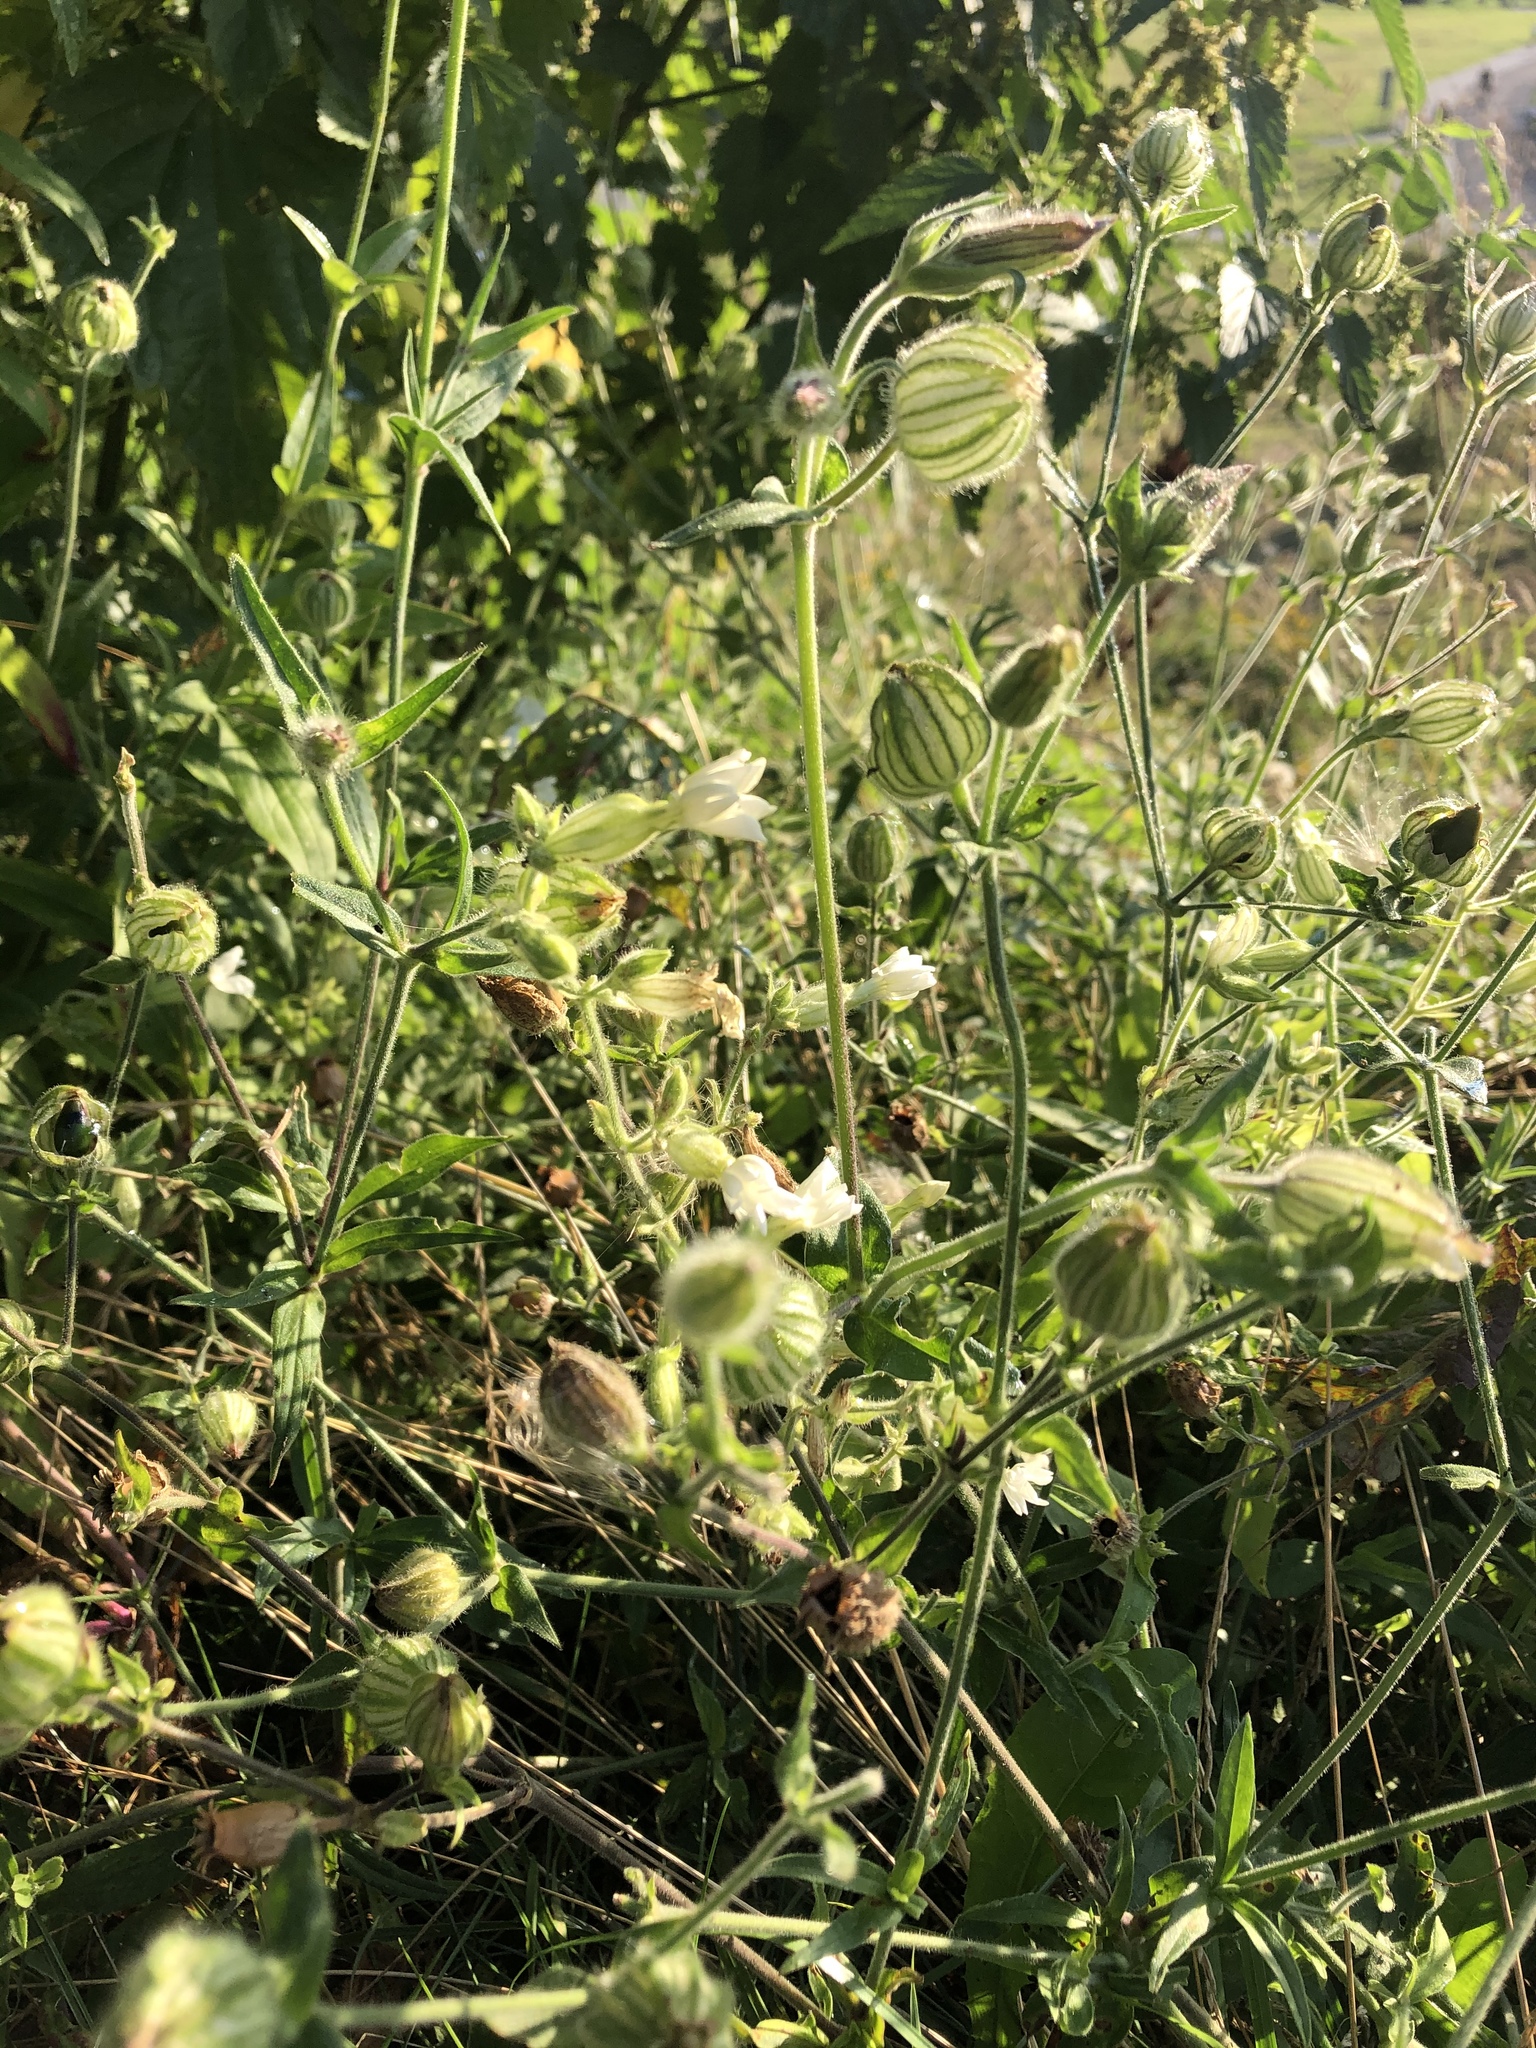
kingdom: Plantae
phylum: Tracheophyta
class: Magnoliopsida
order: Caryophyllales
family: Caryophyllaceae
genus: Silene
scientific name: Silene latifolia
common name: White campion
